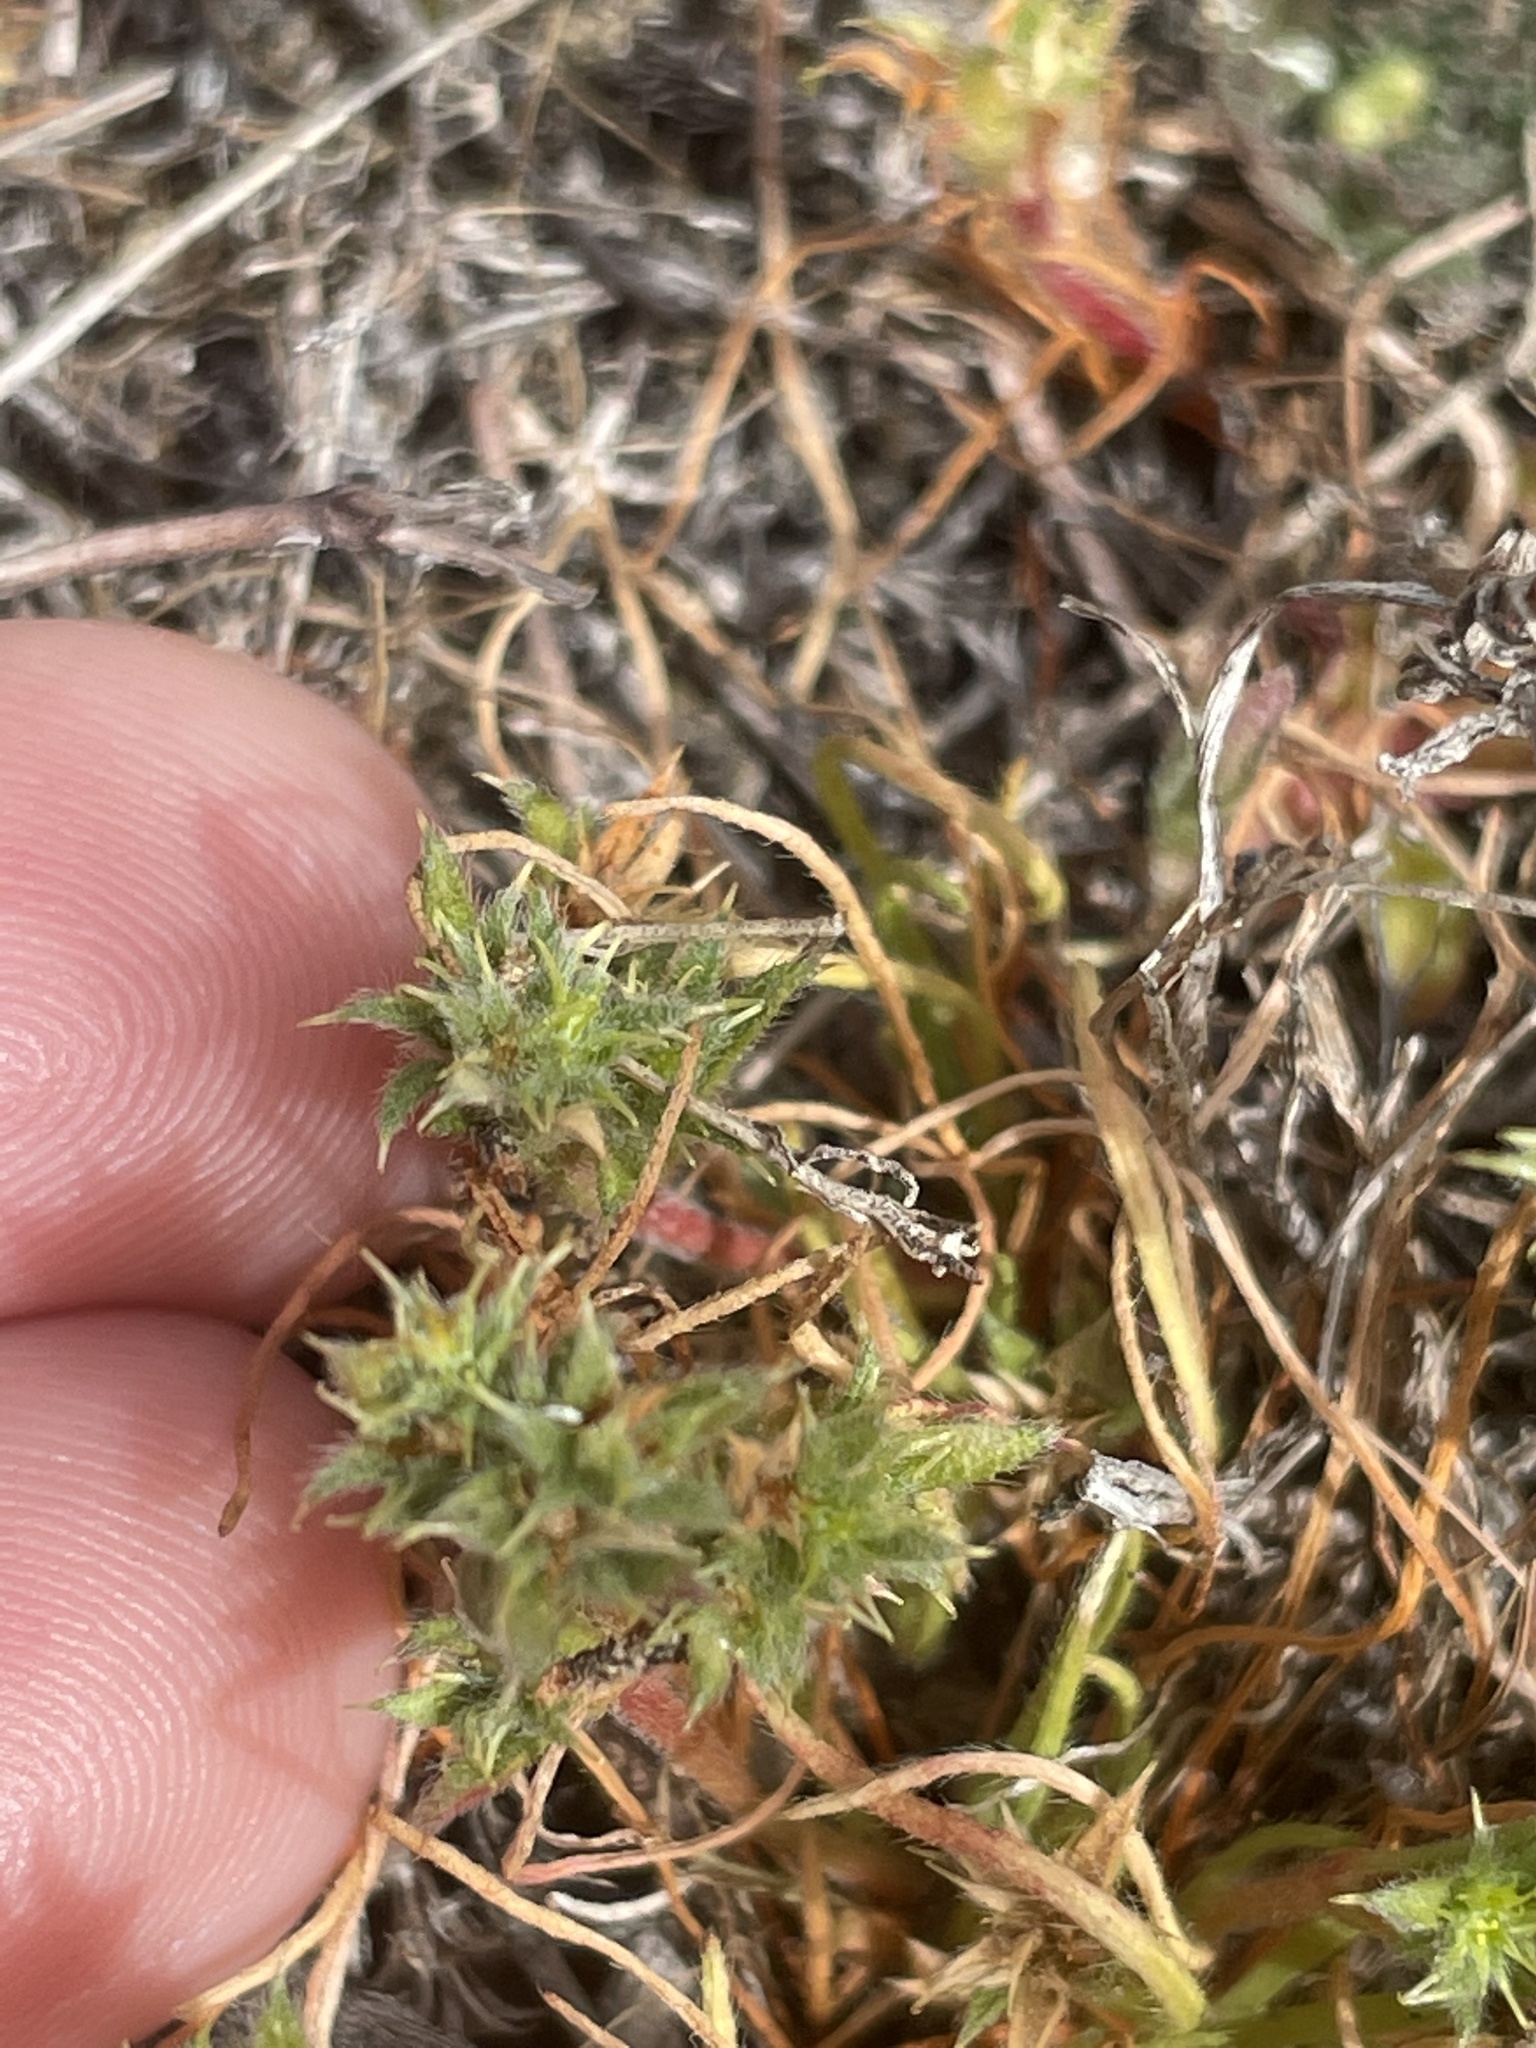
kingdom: Plantae
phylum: Tracheophyta
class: Magnoliopsida
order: Caryophyllales
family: Polygonaceae
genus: Lastarriaea
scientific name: Lastarriaea coriacea
